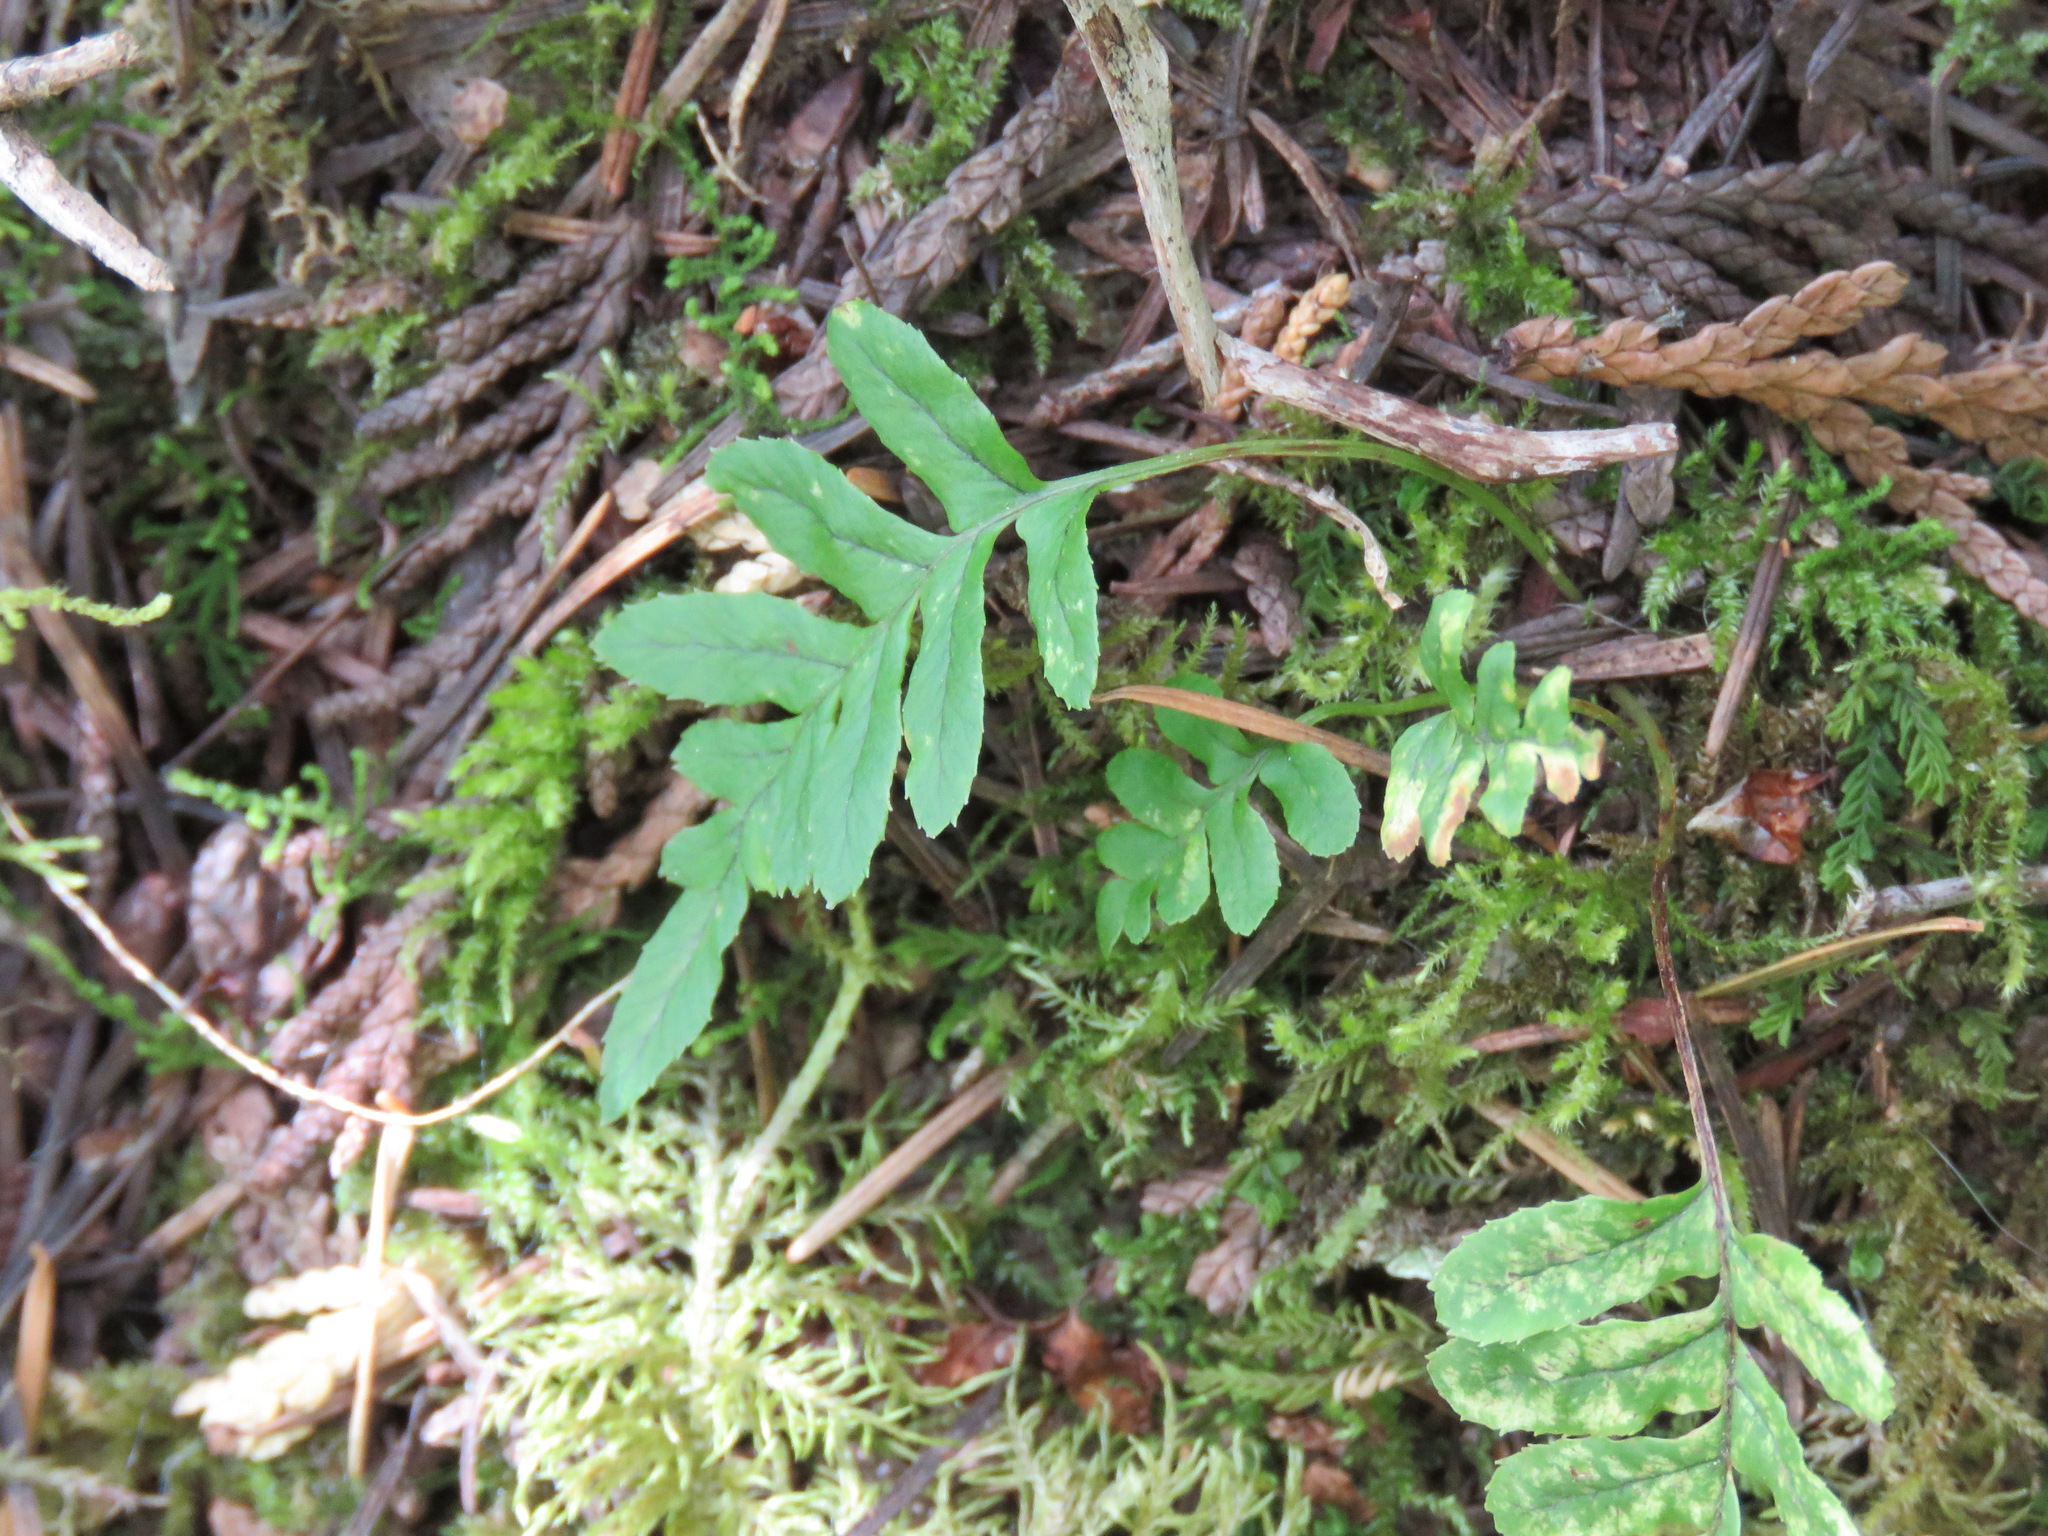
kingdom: Plantae
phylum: Tracheophyta
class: Polypodiopsida
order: Polypodiales
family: Polypodiaceae
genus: Polypodium
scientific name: Polypodium glycyrrhiza
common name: Licorice fern
